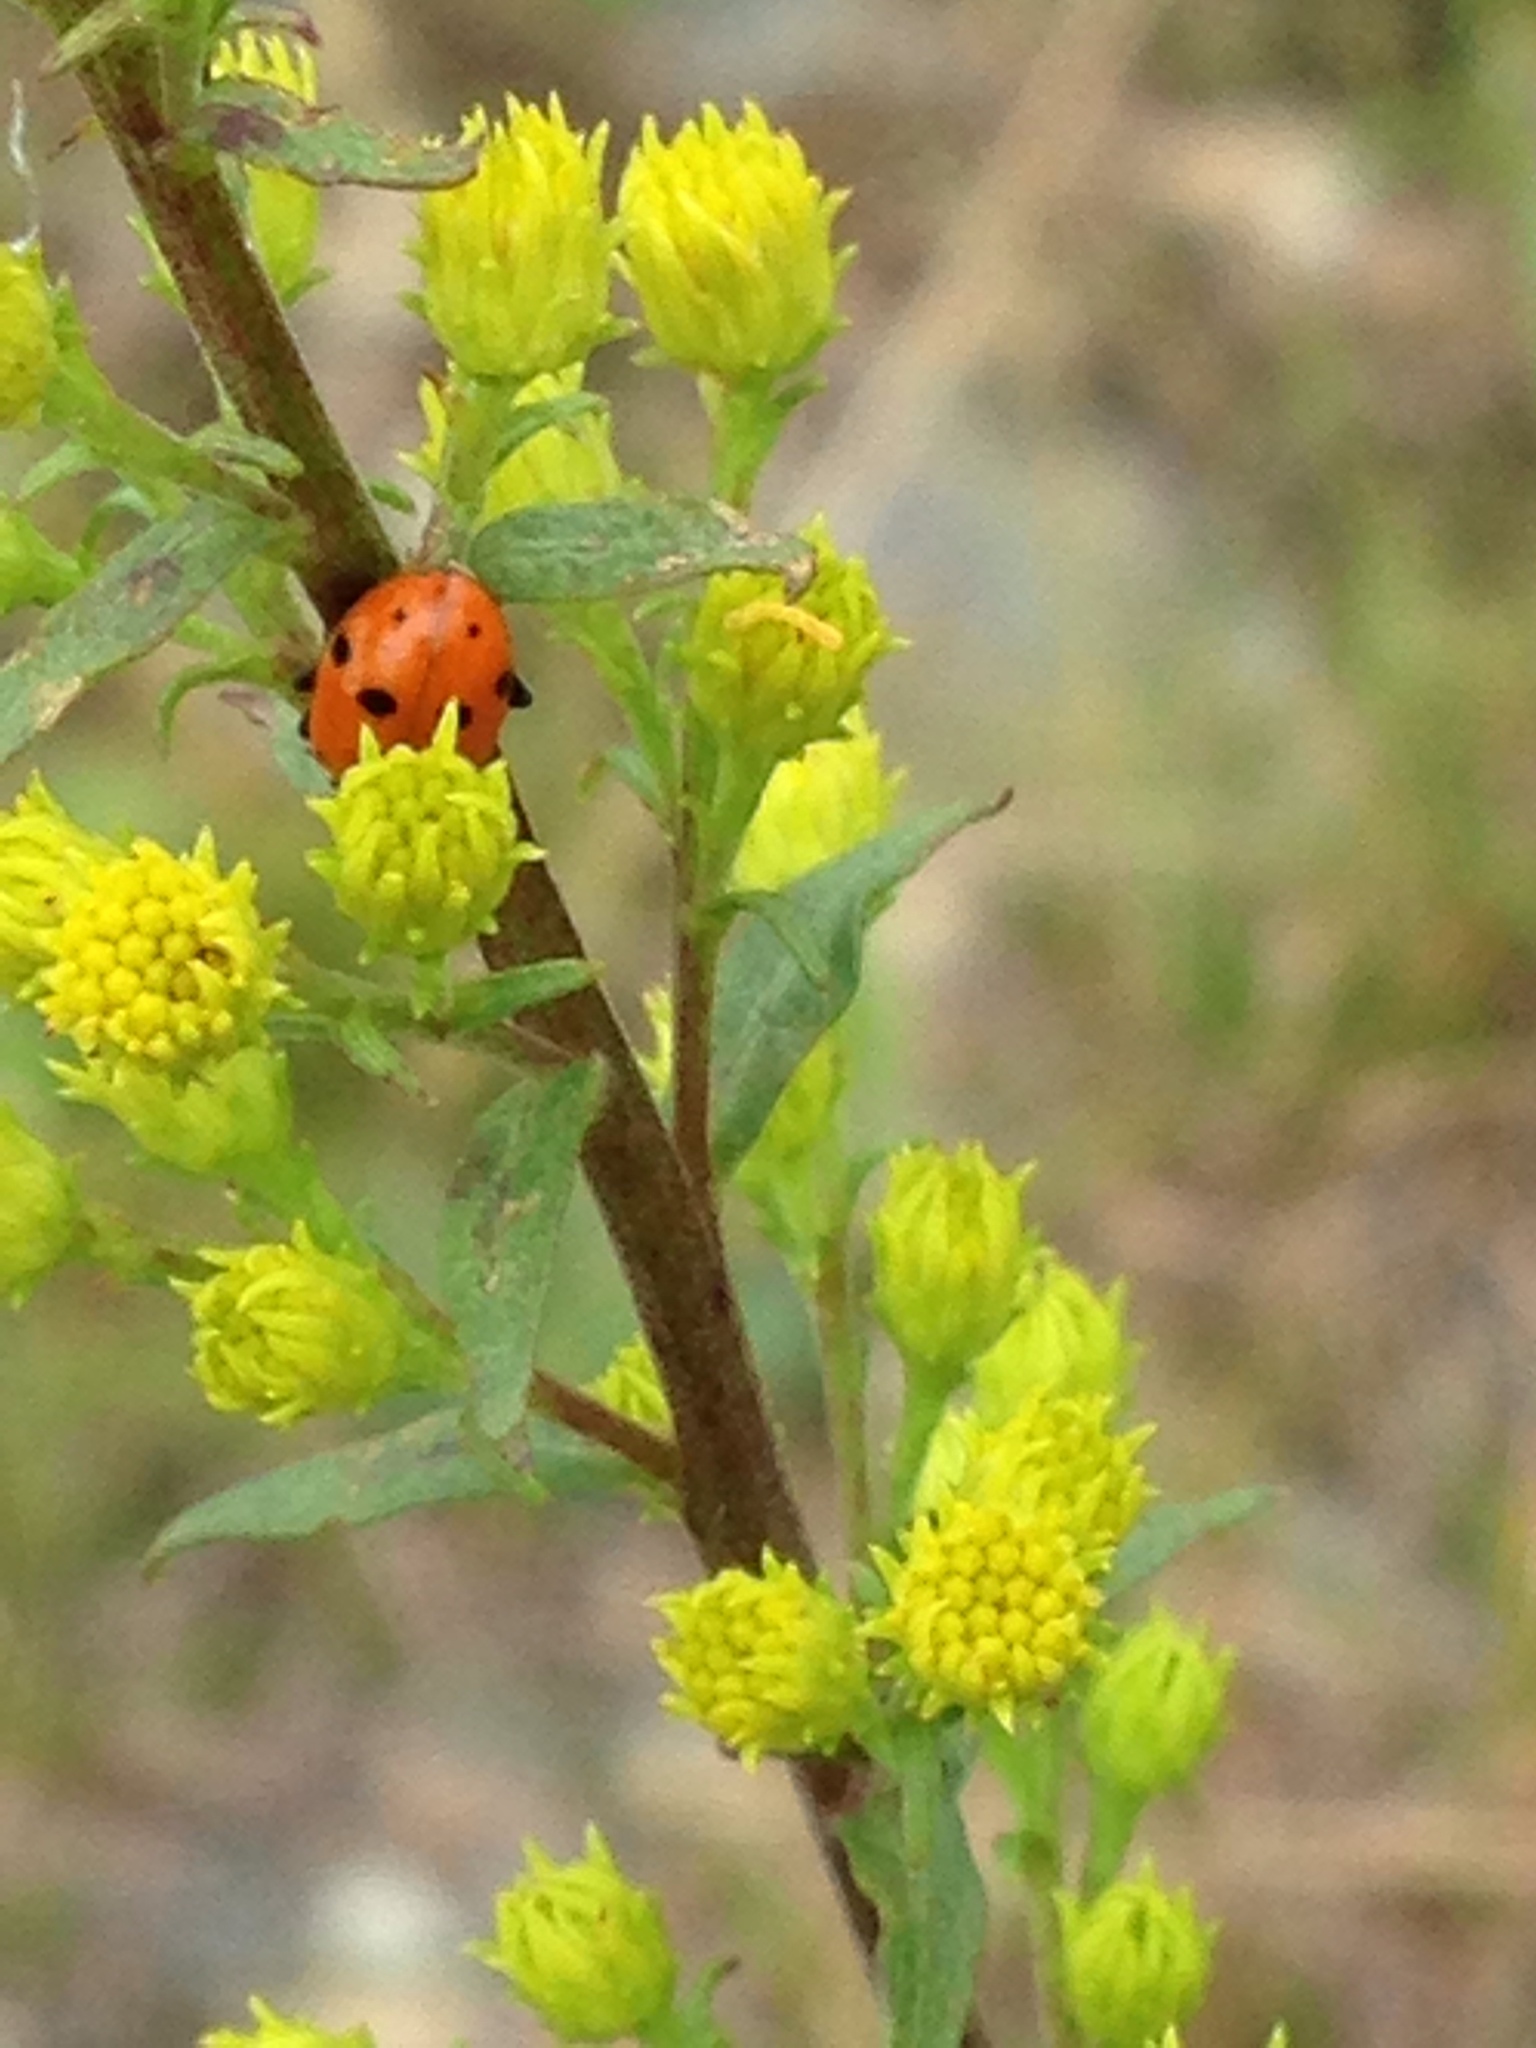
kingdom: Animalia
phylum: Arthropoda
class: Insecta
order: Coleoptera
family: Coccinellidae
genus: Hippodamia
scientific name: Hippodamia
